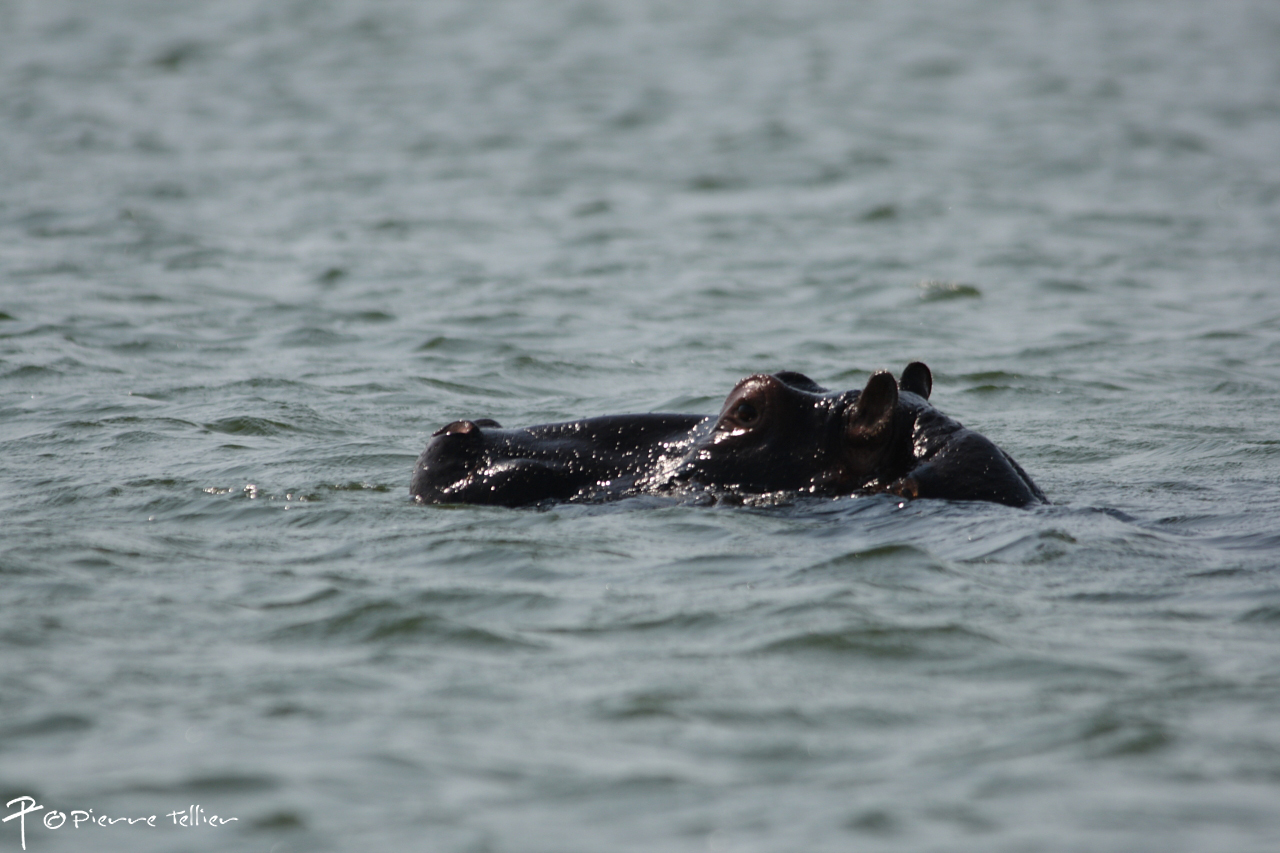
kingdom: Animalia
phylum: Chordata
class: Mammalia
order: Artiodactyla
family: Hippopotamidae
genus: Hippopotamus
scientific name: Hippopotamus amphibius
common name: Common hippopotamus
